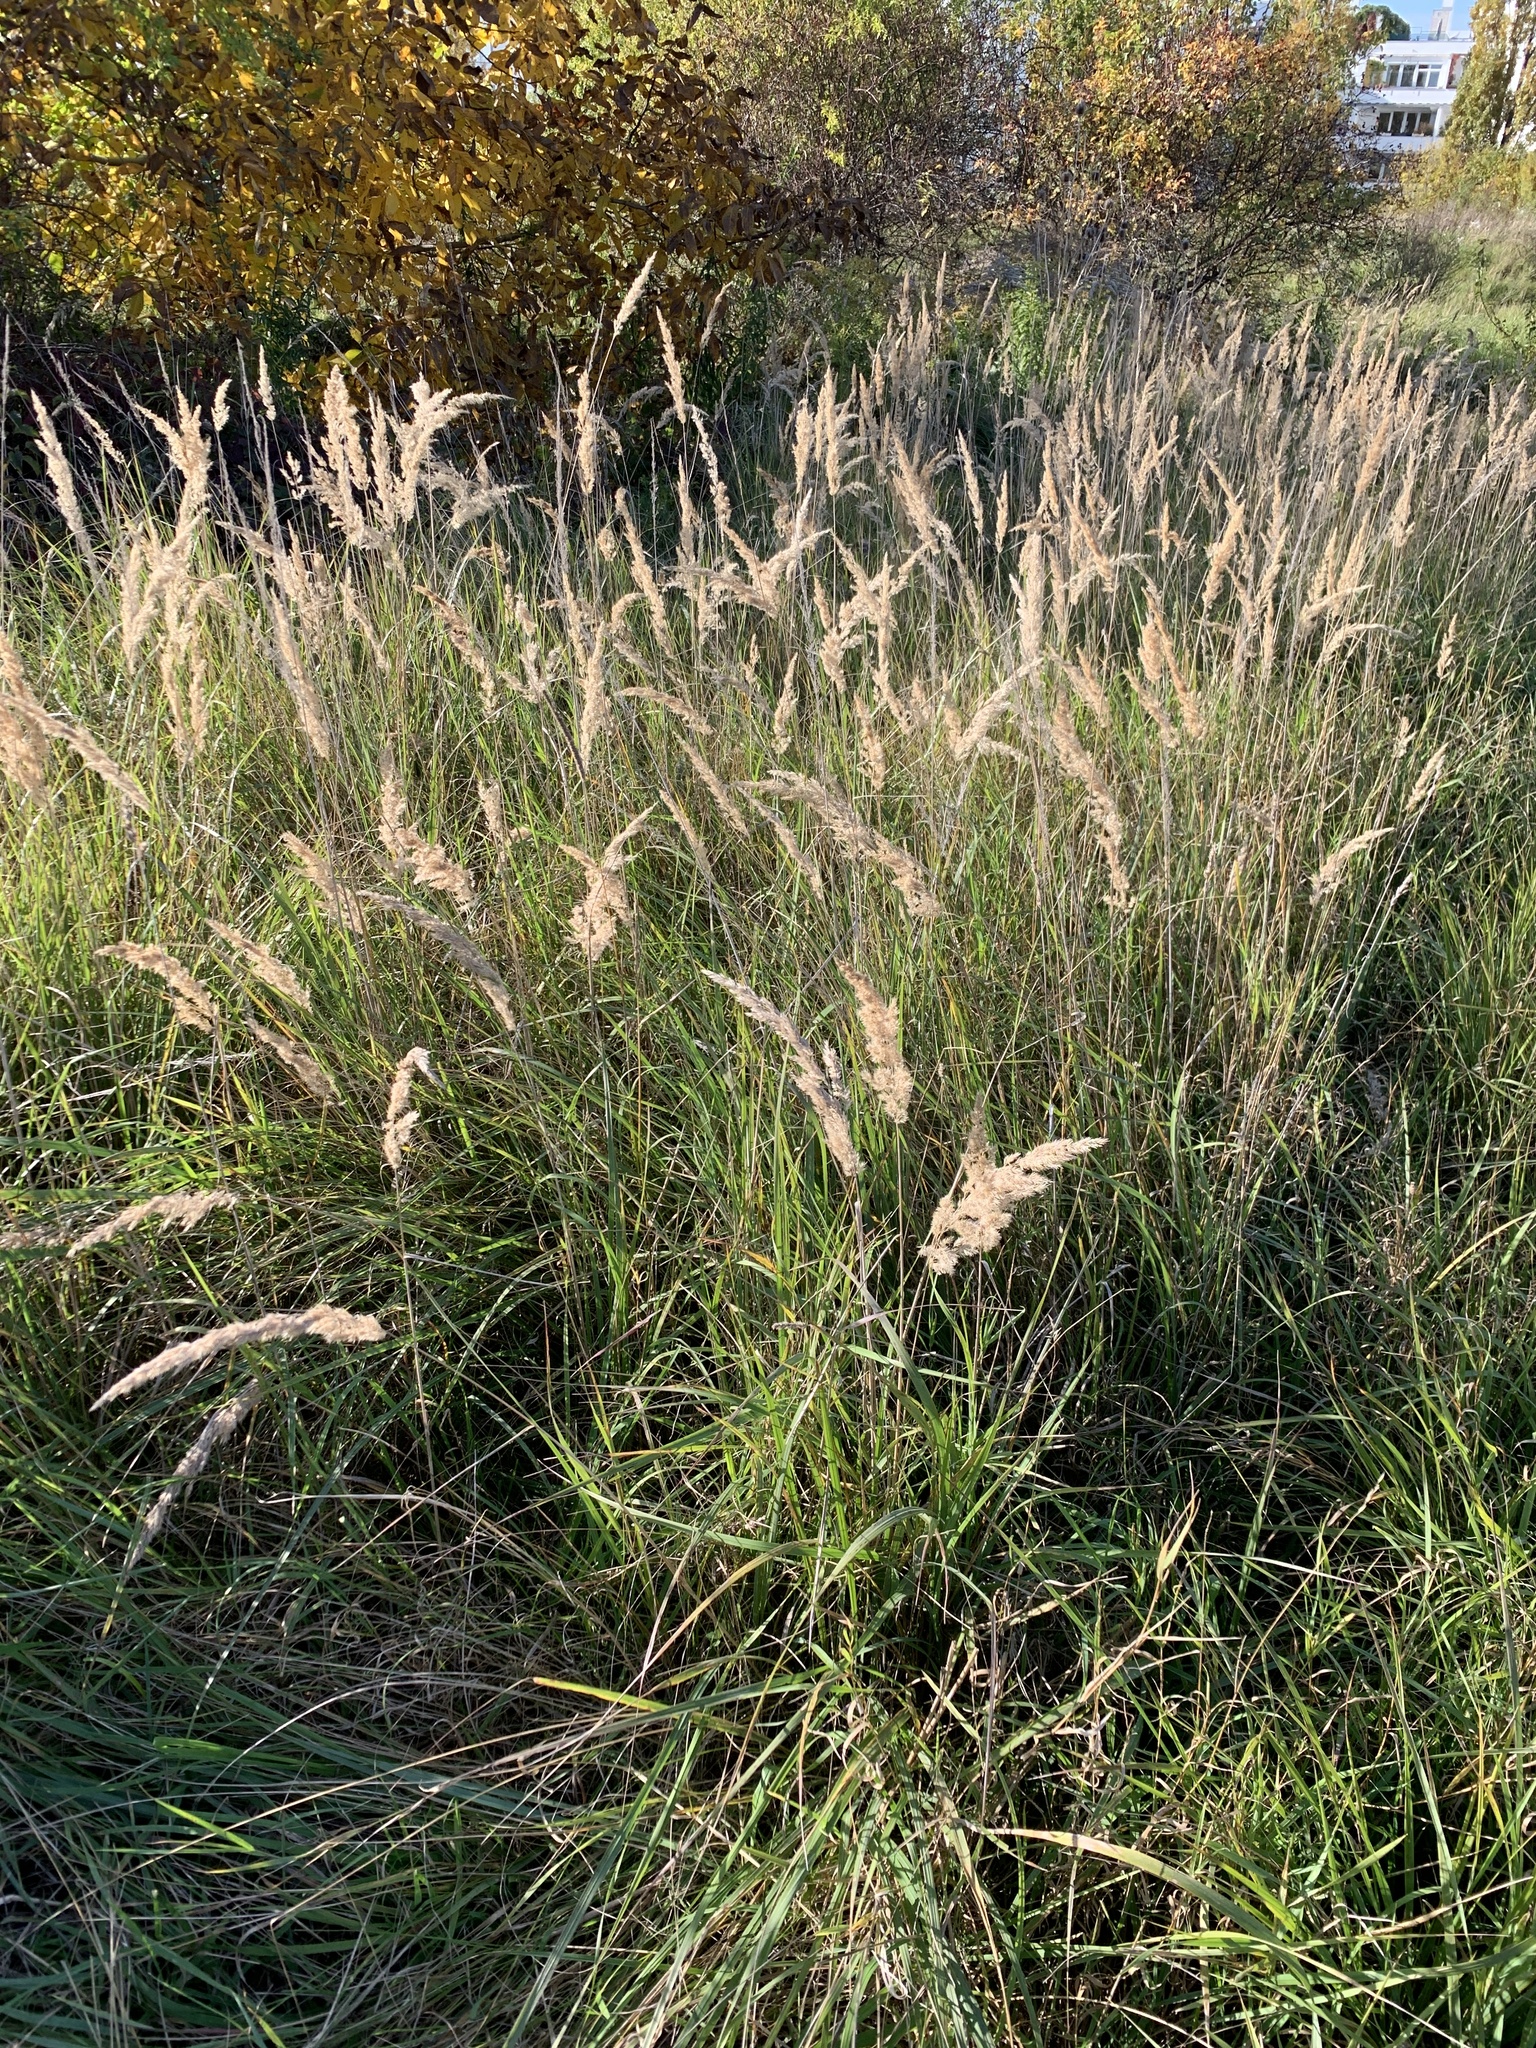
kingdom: Plantae
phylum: Tracheophyta
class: Liliopsida
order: Poales
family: Poaceae
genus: Calamagrostis
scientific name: Calamagrostis epigejos
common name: Wood small-reed
